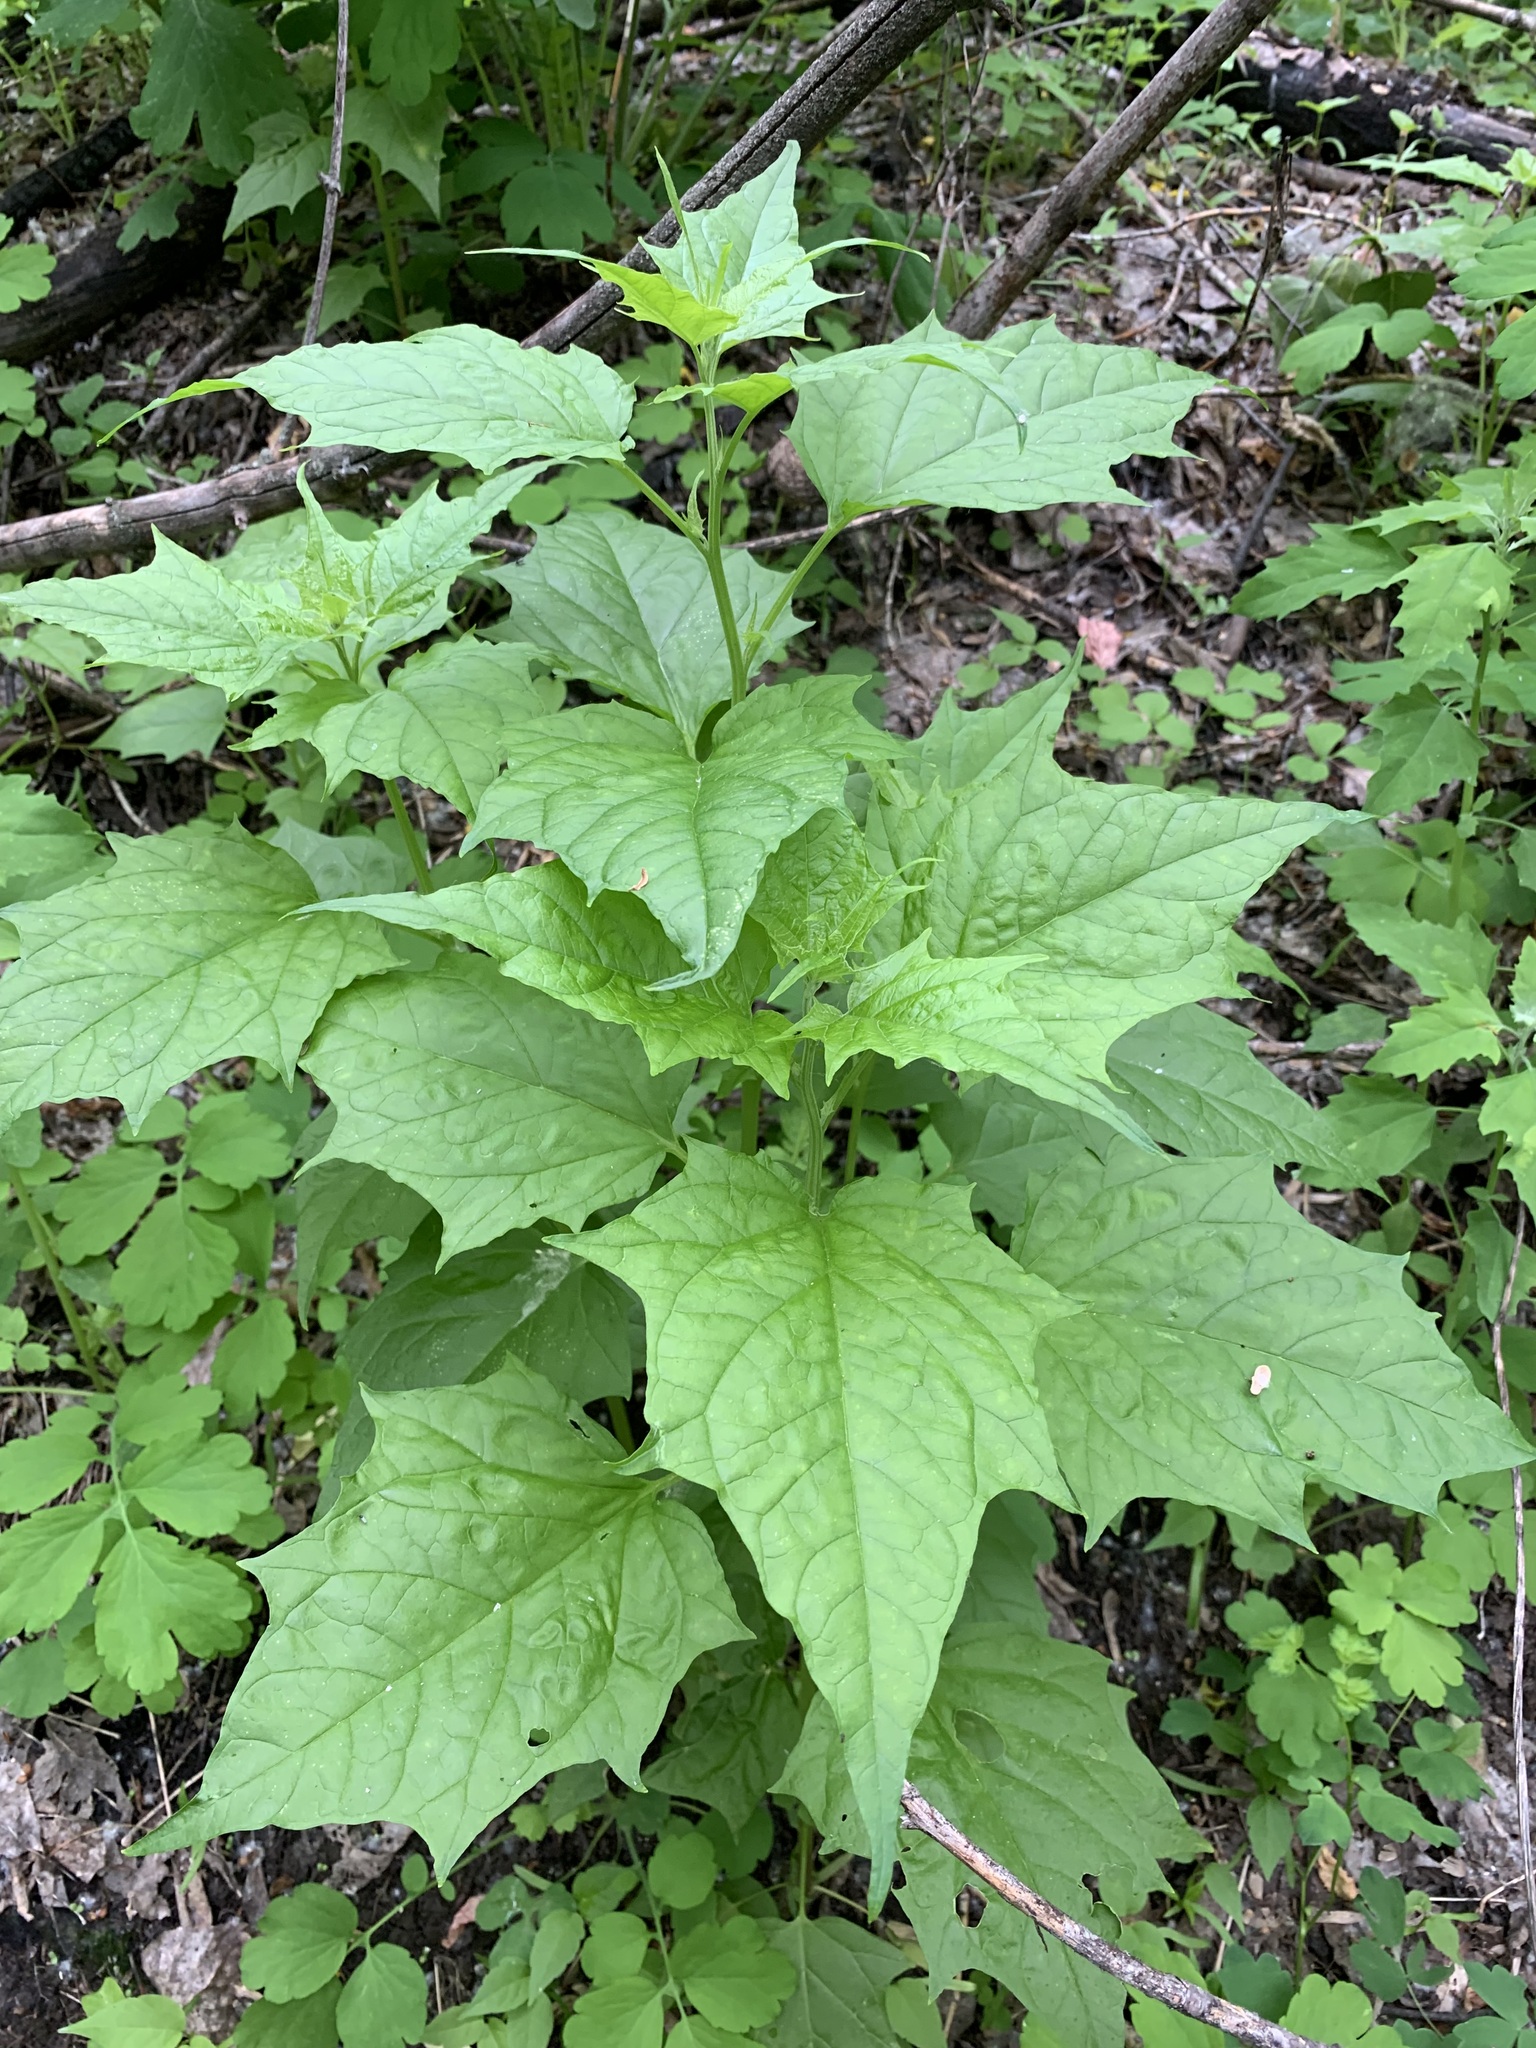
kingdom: Plantae
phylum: Tracheophyta
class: Magnoliopsida
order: Caryophyllales
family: Amaranthaceae
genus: Chenopodiastrum
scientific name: Chenopodiastrum hybridum
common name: Mapleleaf goosefoot
